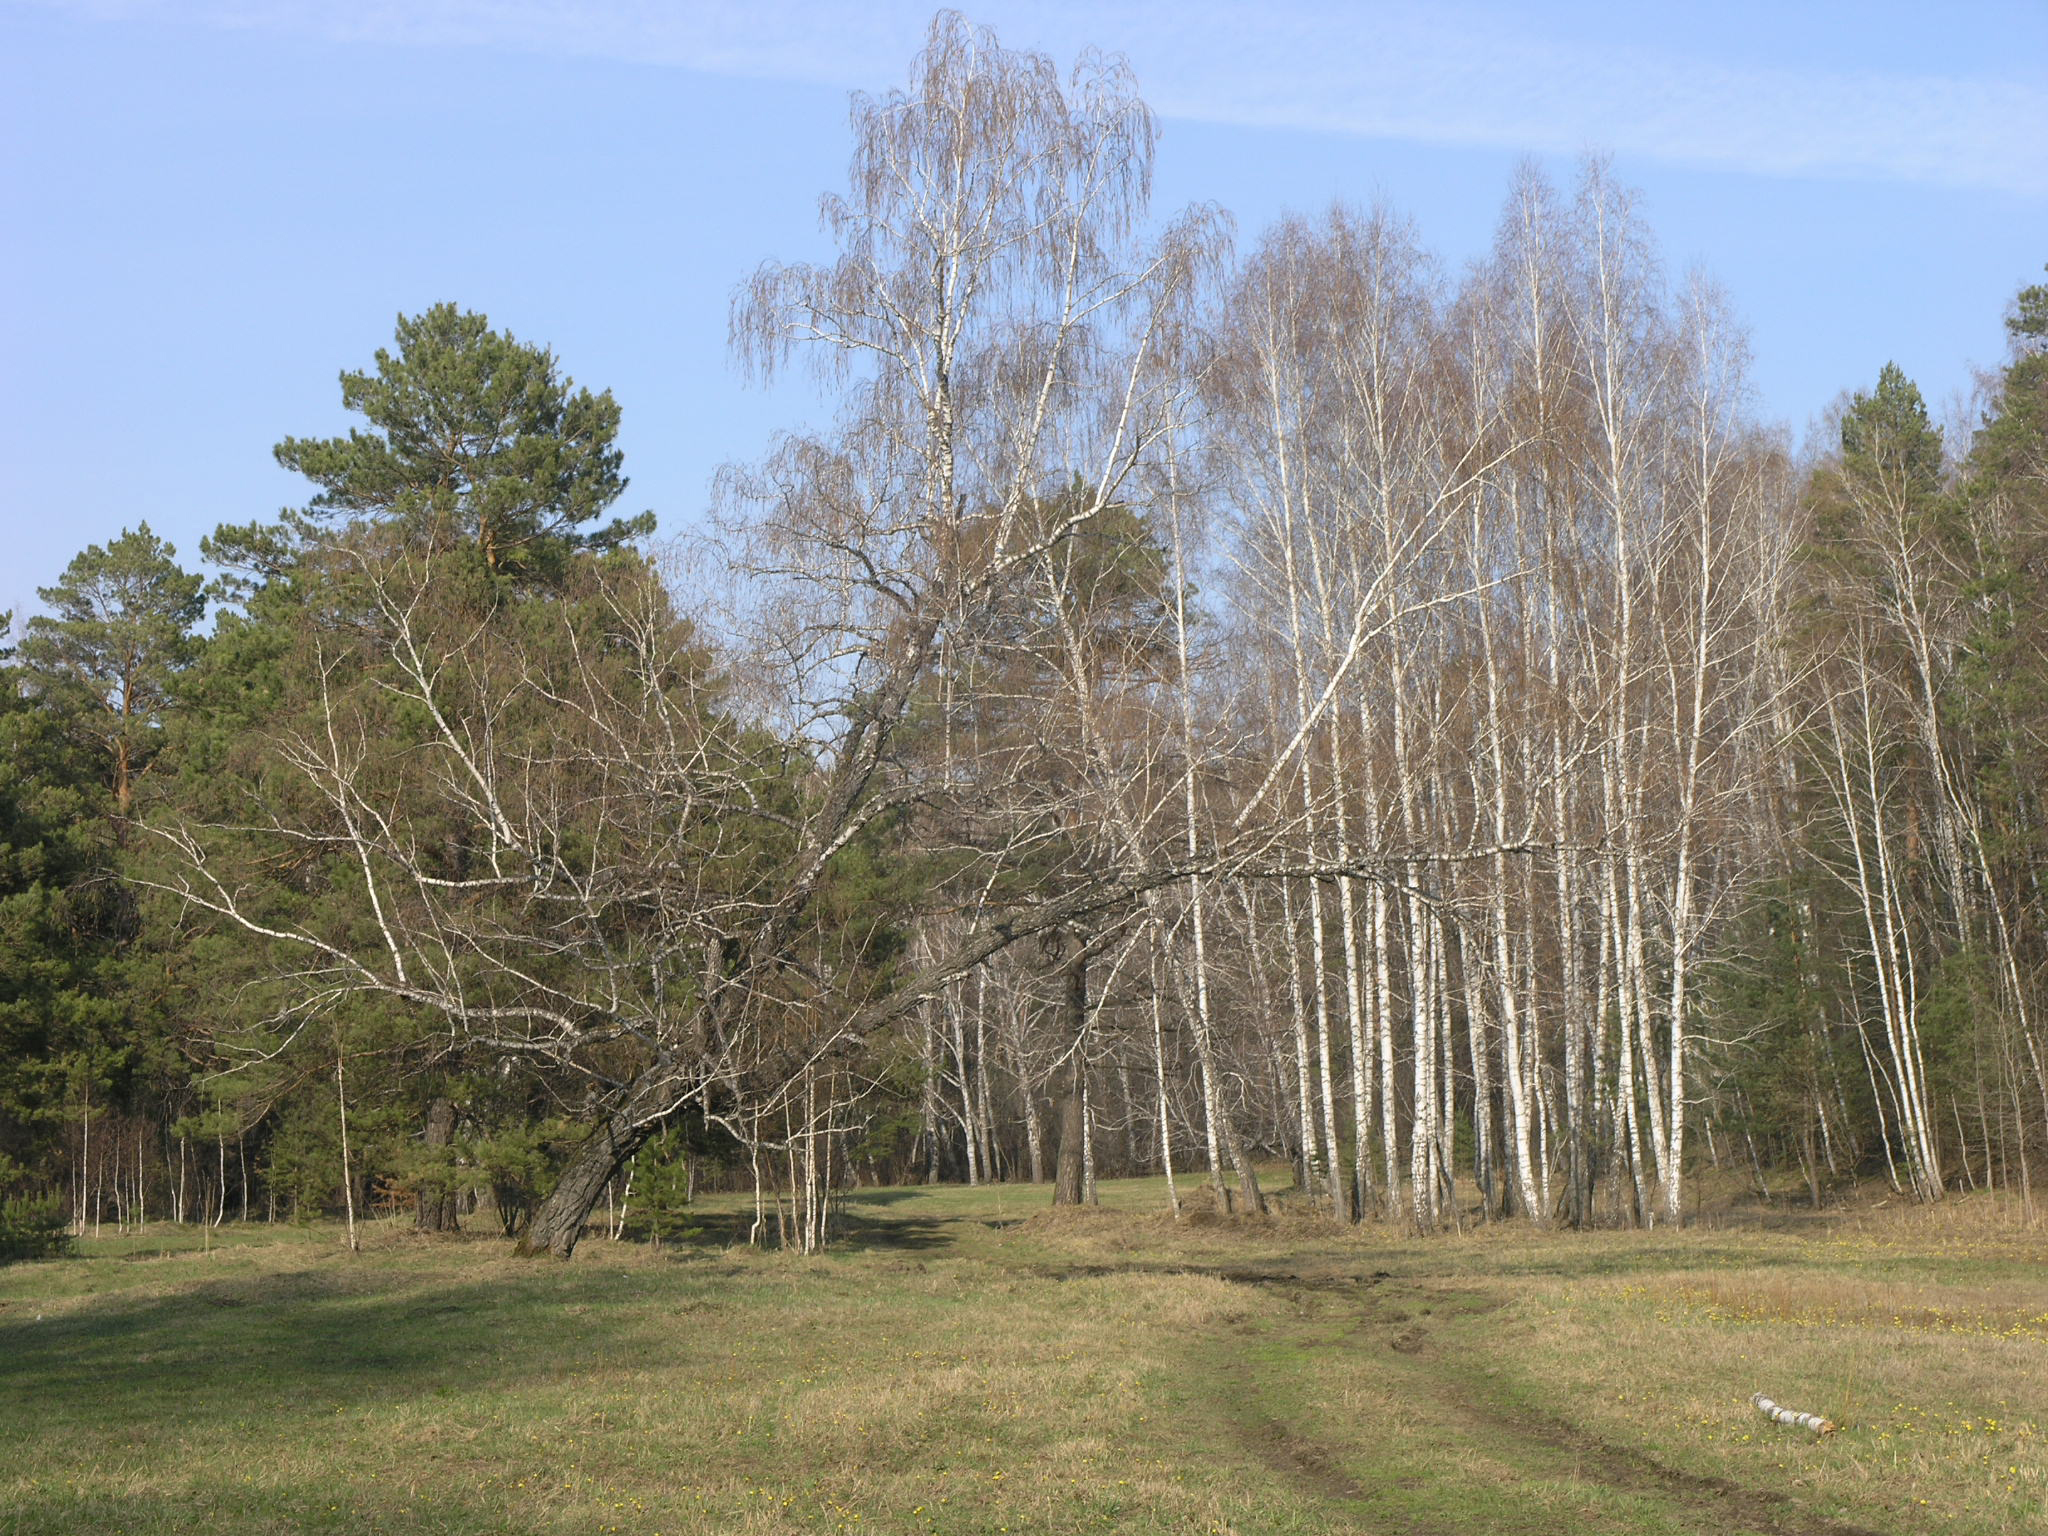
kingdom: Plantae
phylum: Tracheophyta
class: Pinopsida
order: Pinales
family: Pinaceae
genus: Pinus
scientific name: Pinus sylvestris
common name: Scots pine
